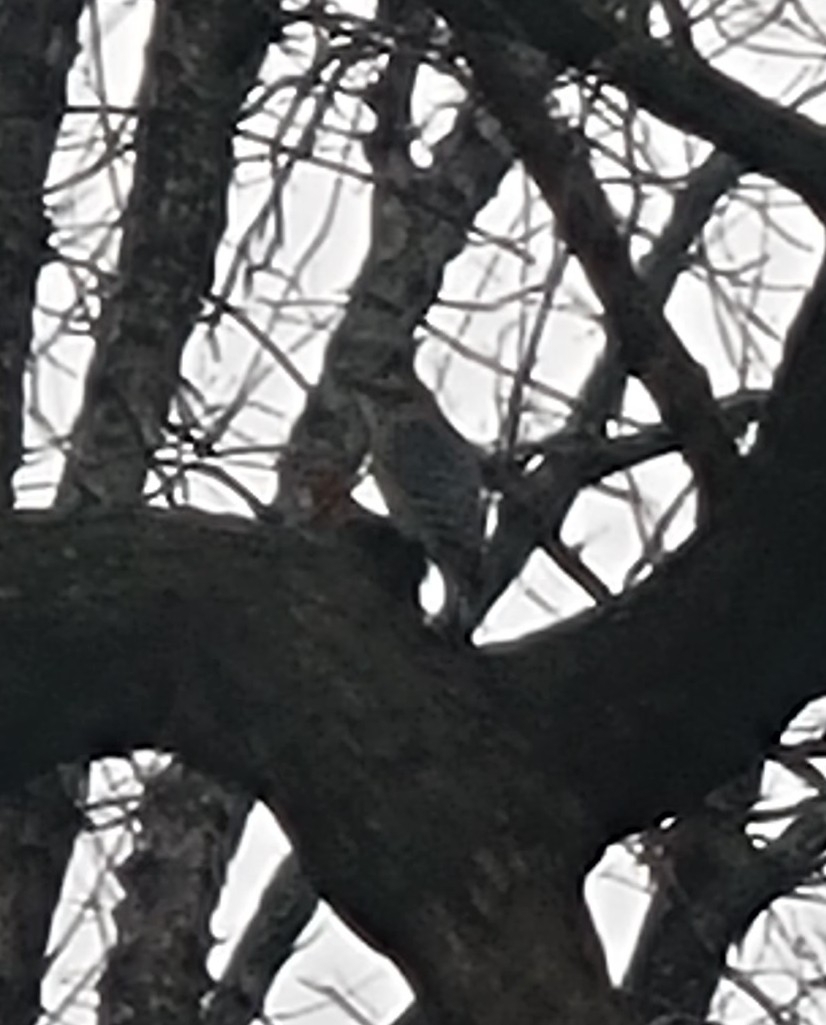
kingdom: Animalia
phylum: Chordata
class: Aves
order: Piciformes
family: Picidae
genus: Melanerpes
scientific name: Melanerpes carolinus
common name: Red-bellied woodpecker
